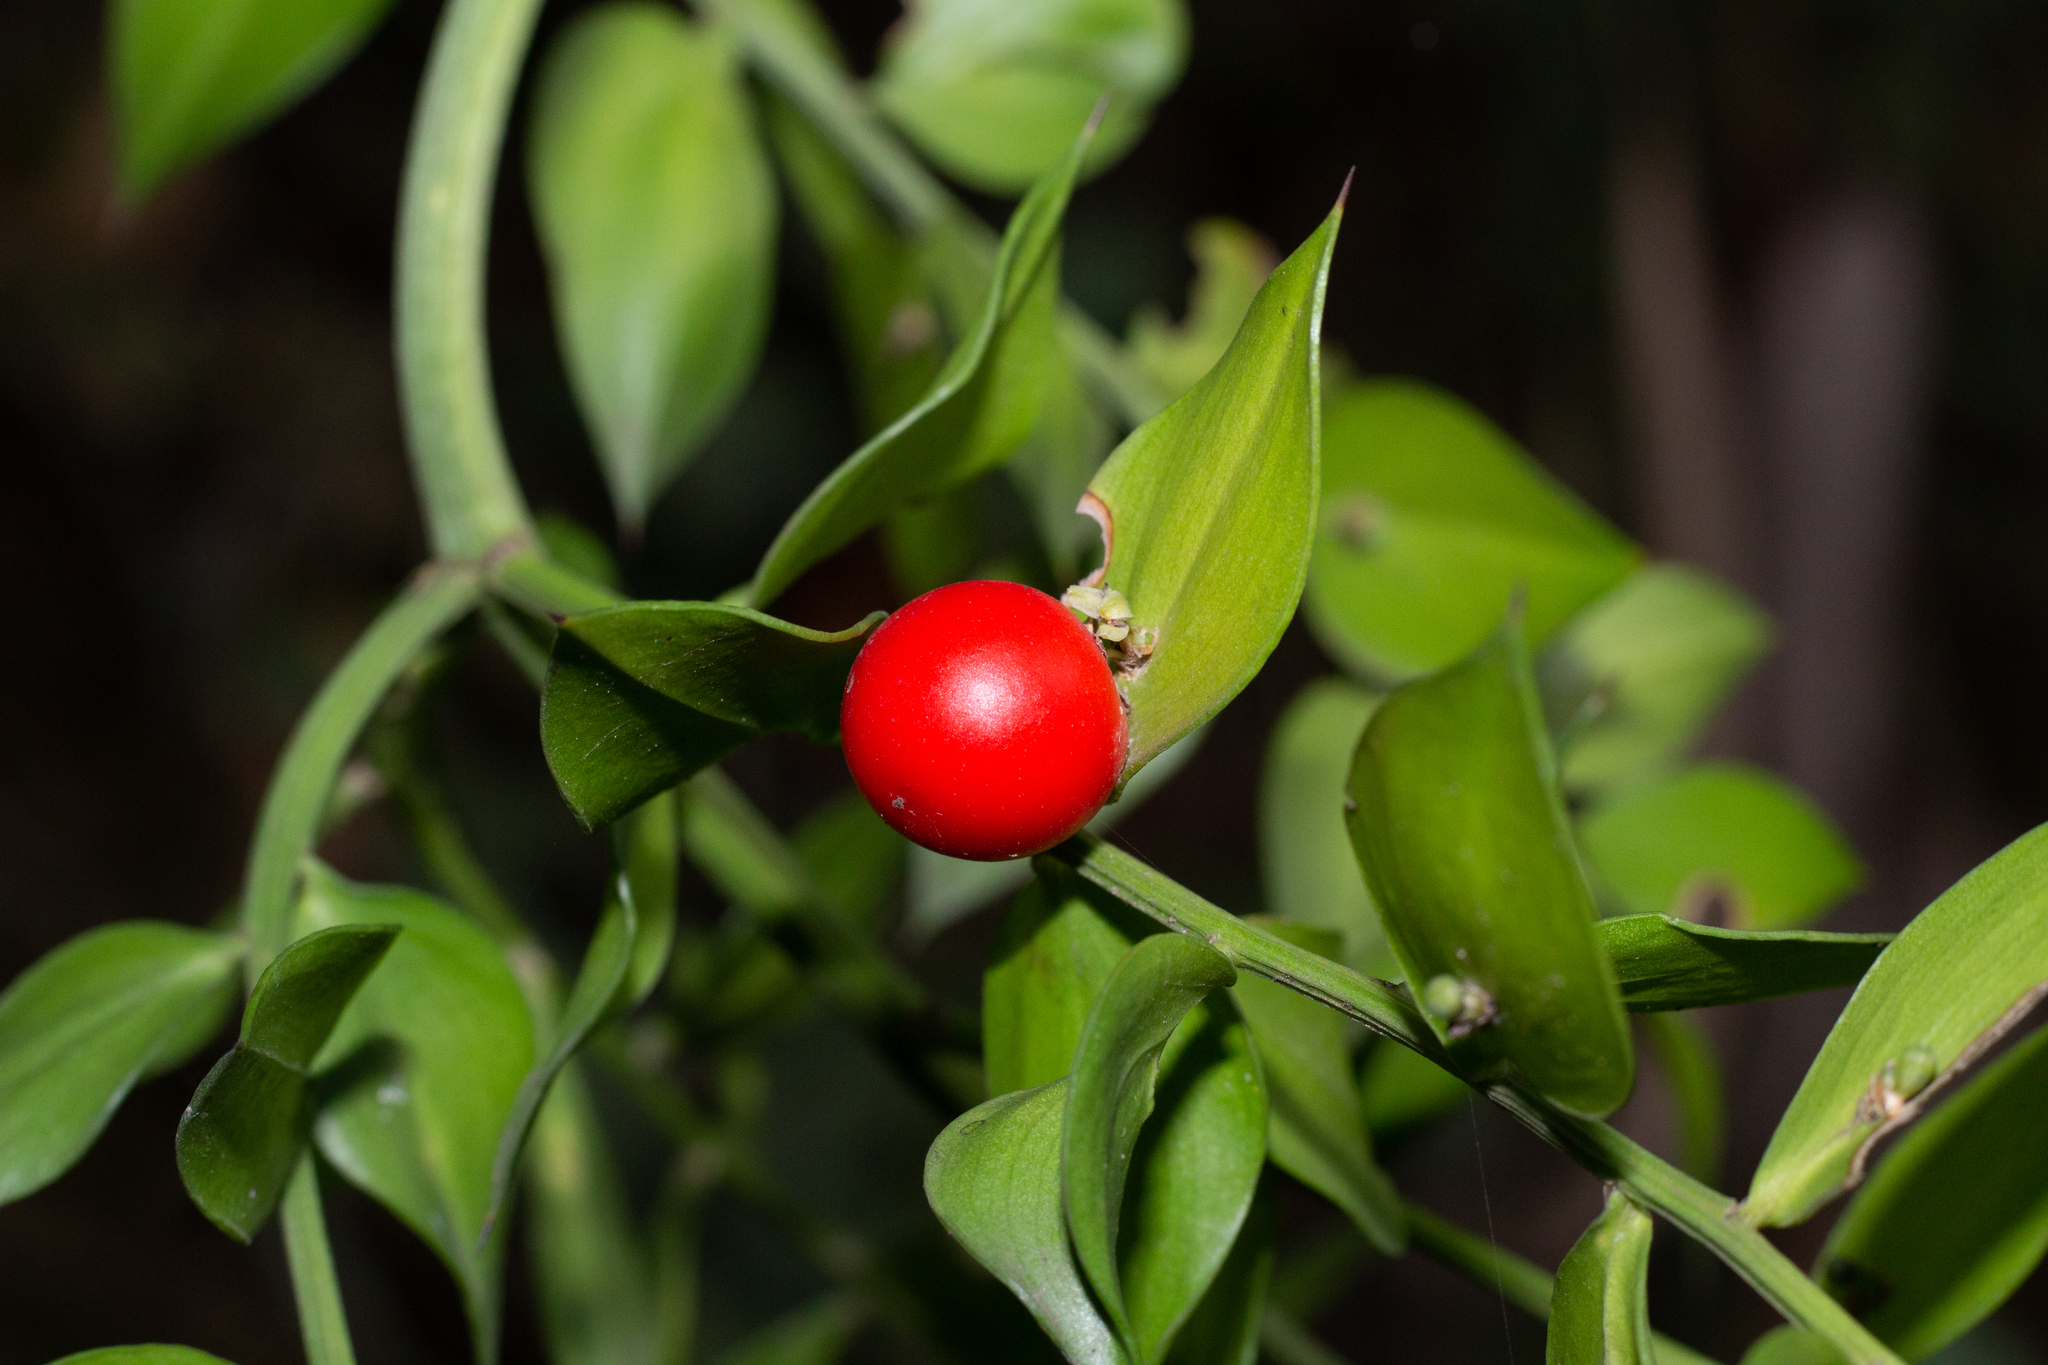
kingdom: Plantae
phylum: Tracheophyta
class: Liliopsida
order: Asparagales
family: Asparagaceae
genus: Ruscus
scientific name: Ruscus aculeatus
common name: Butcher's-broom
